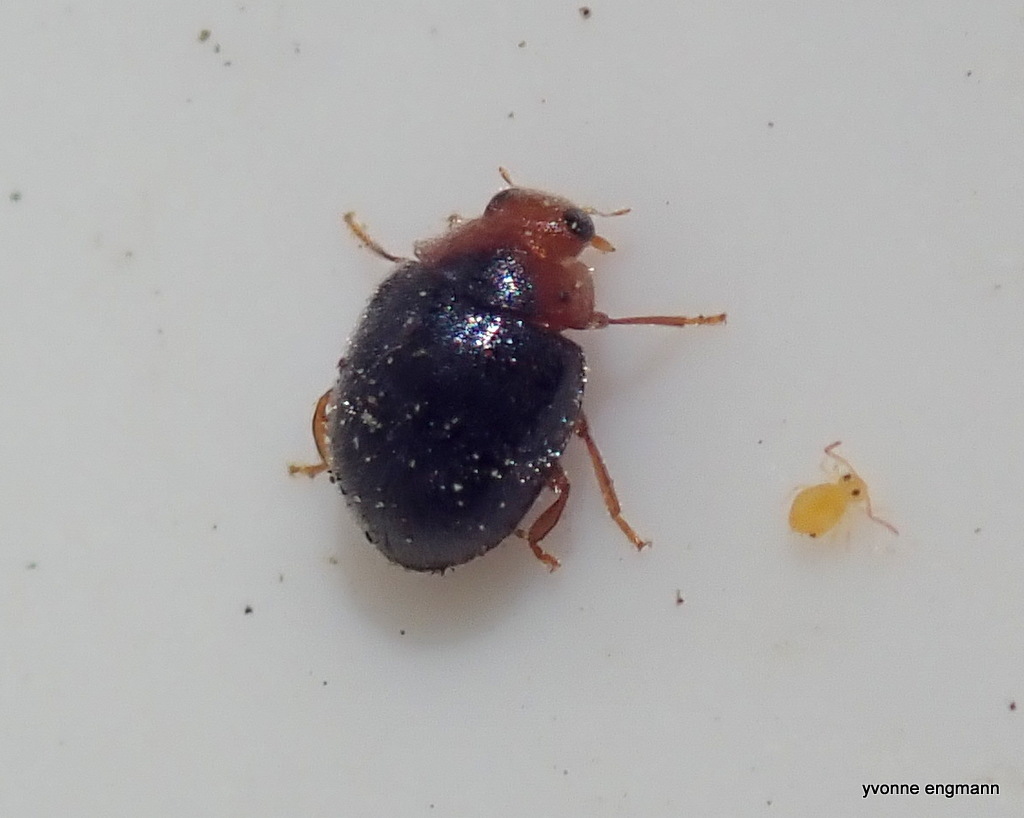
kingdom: Animalia
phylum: Arthropoda
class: Insecta
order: Coleoptera
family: Coccinellidae
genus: Scymnus
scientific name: Scymnus rubromaculatus
